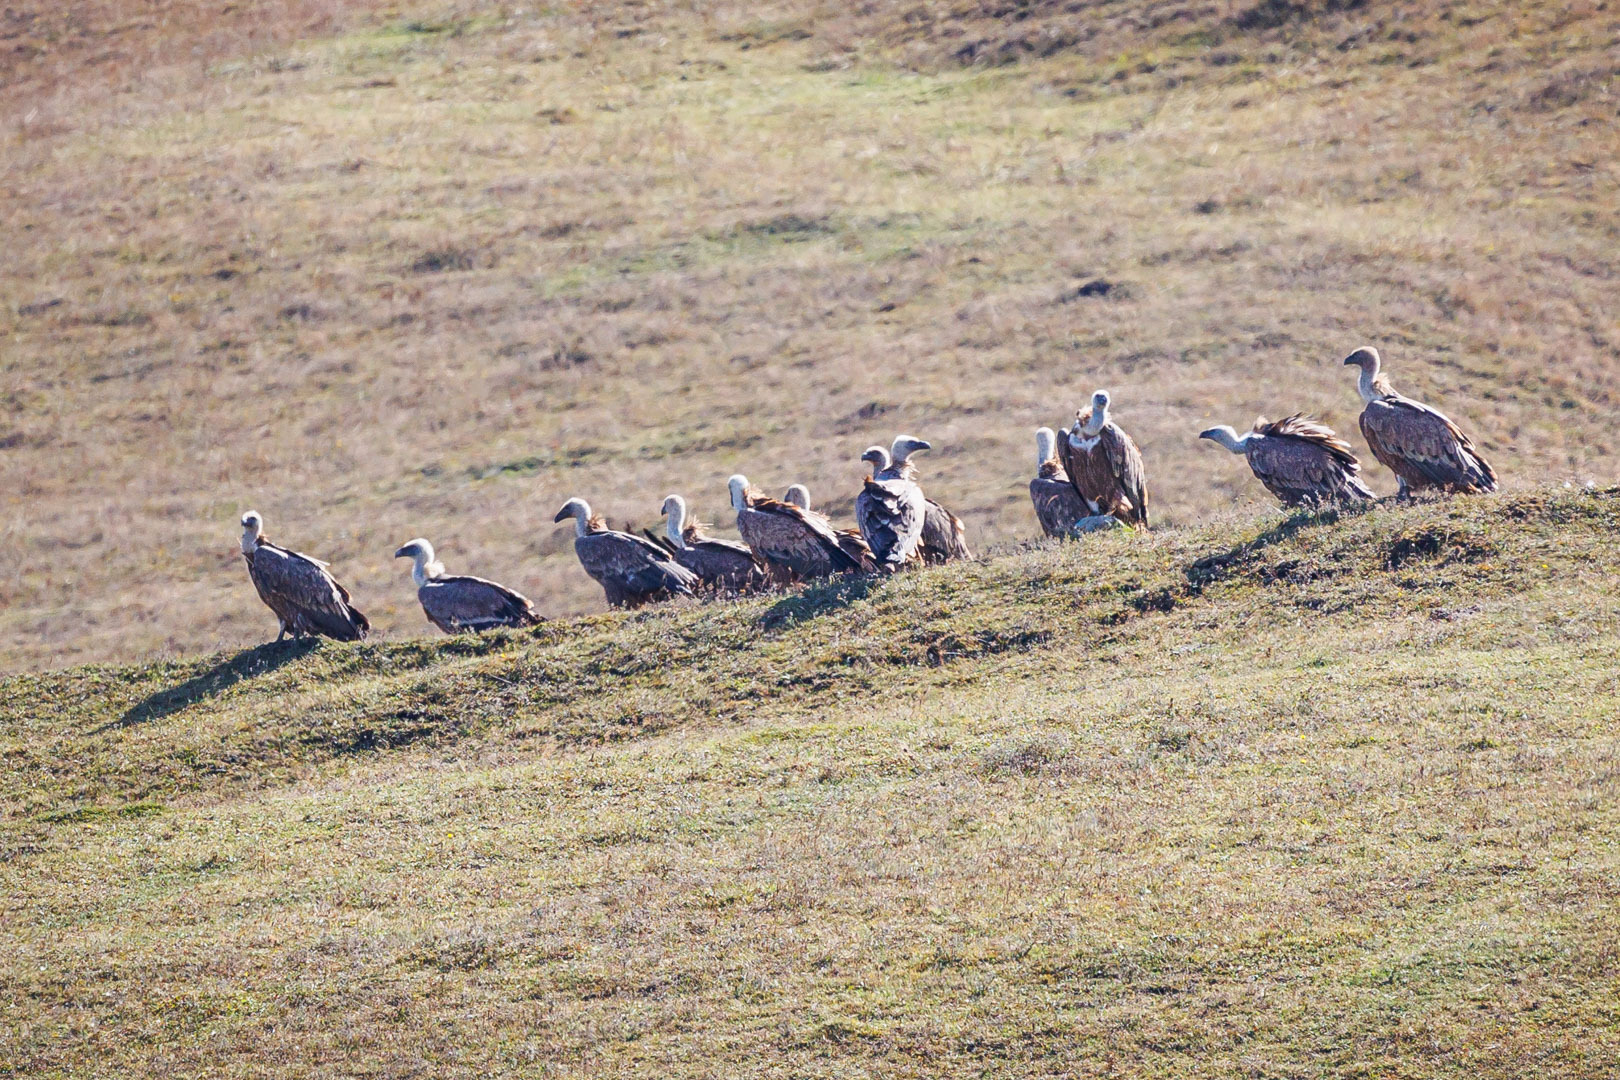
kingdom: Animalia
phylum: Chordata
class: Aves
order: Accipitriformes
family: Accipitridae
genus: Gyps
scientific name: Gyps fulvus
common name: Griffon vulture
